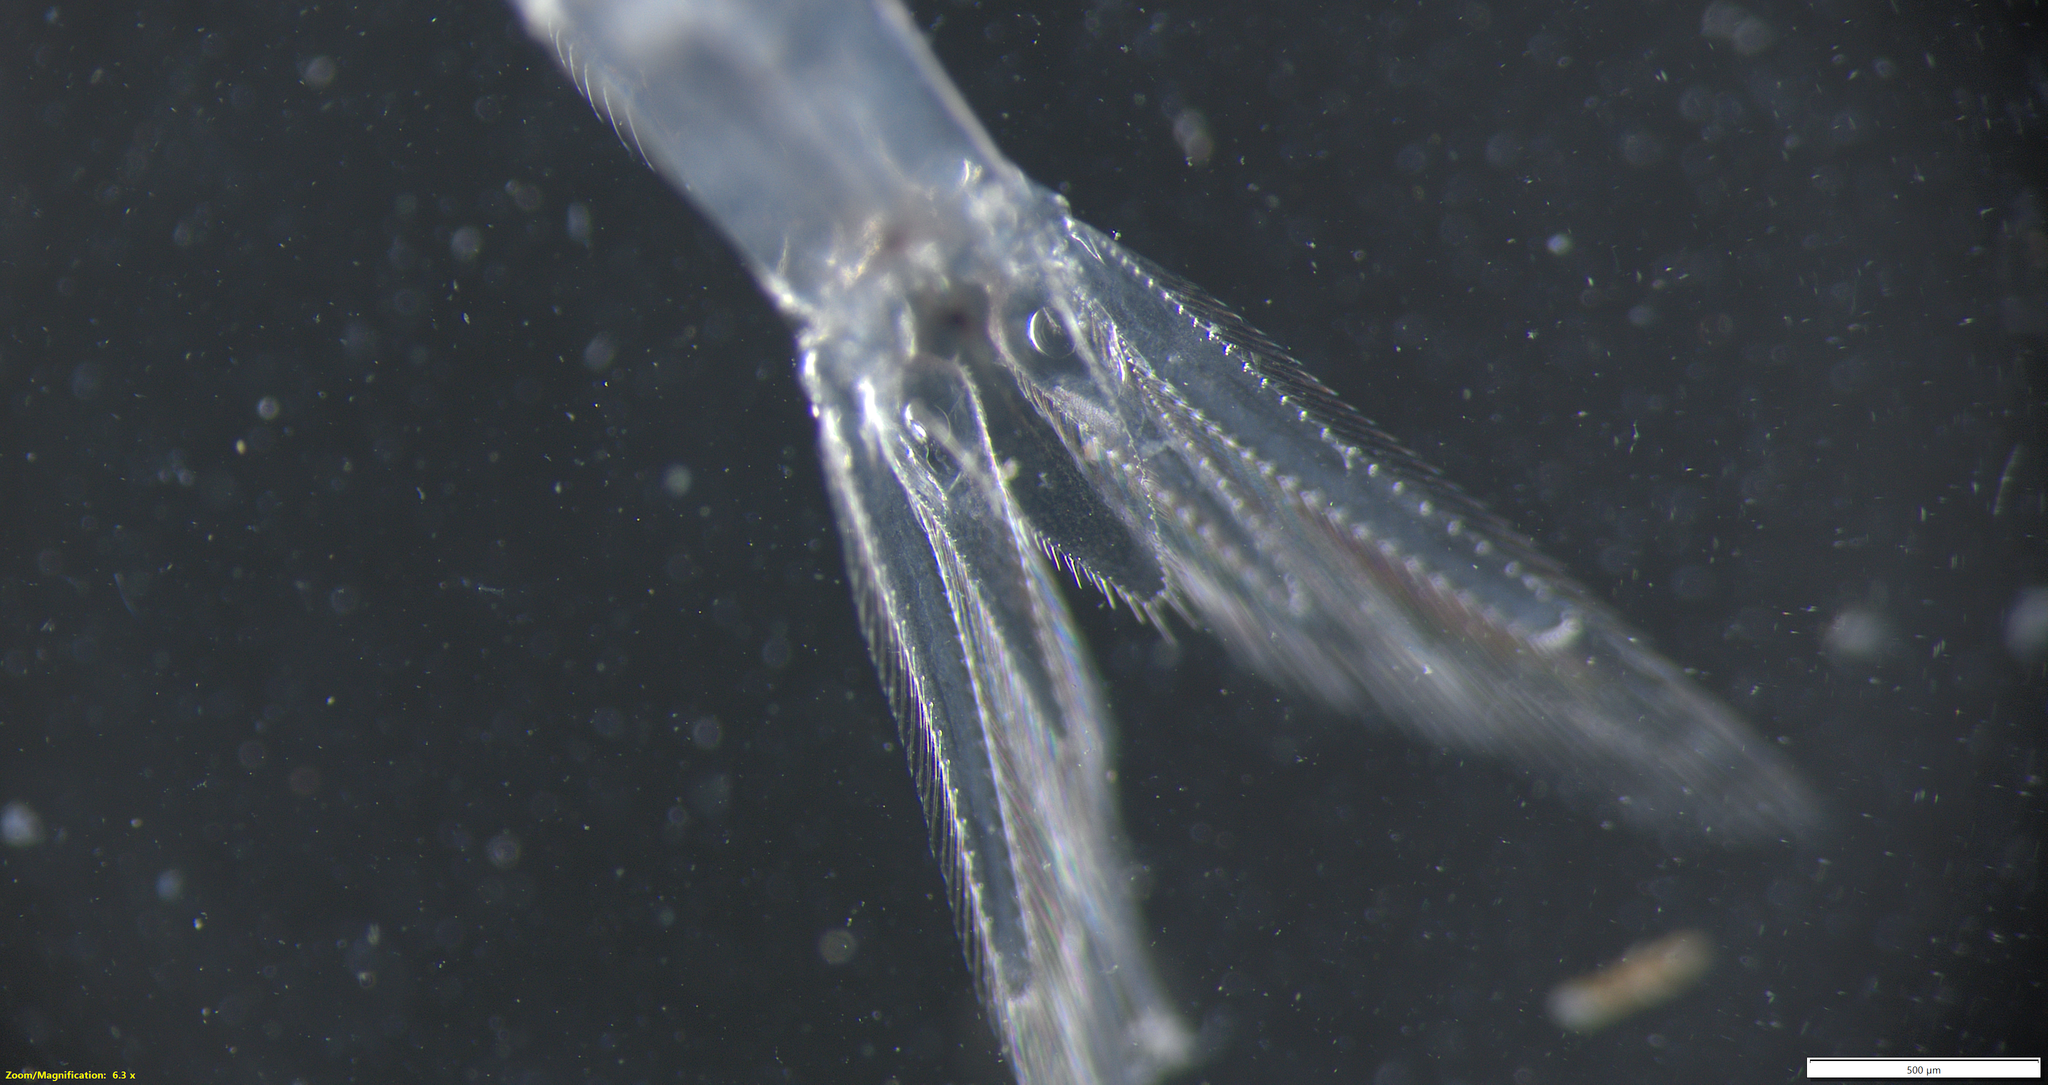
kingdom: Animalia
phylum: Arthropoda
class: Malacostraca
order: Mysida
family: Mysidae
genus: Neomysis
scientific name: Neomysis americana
